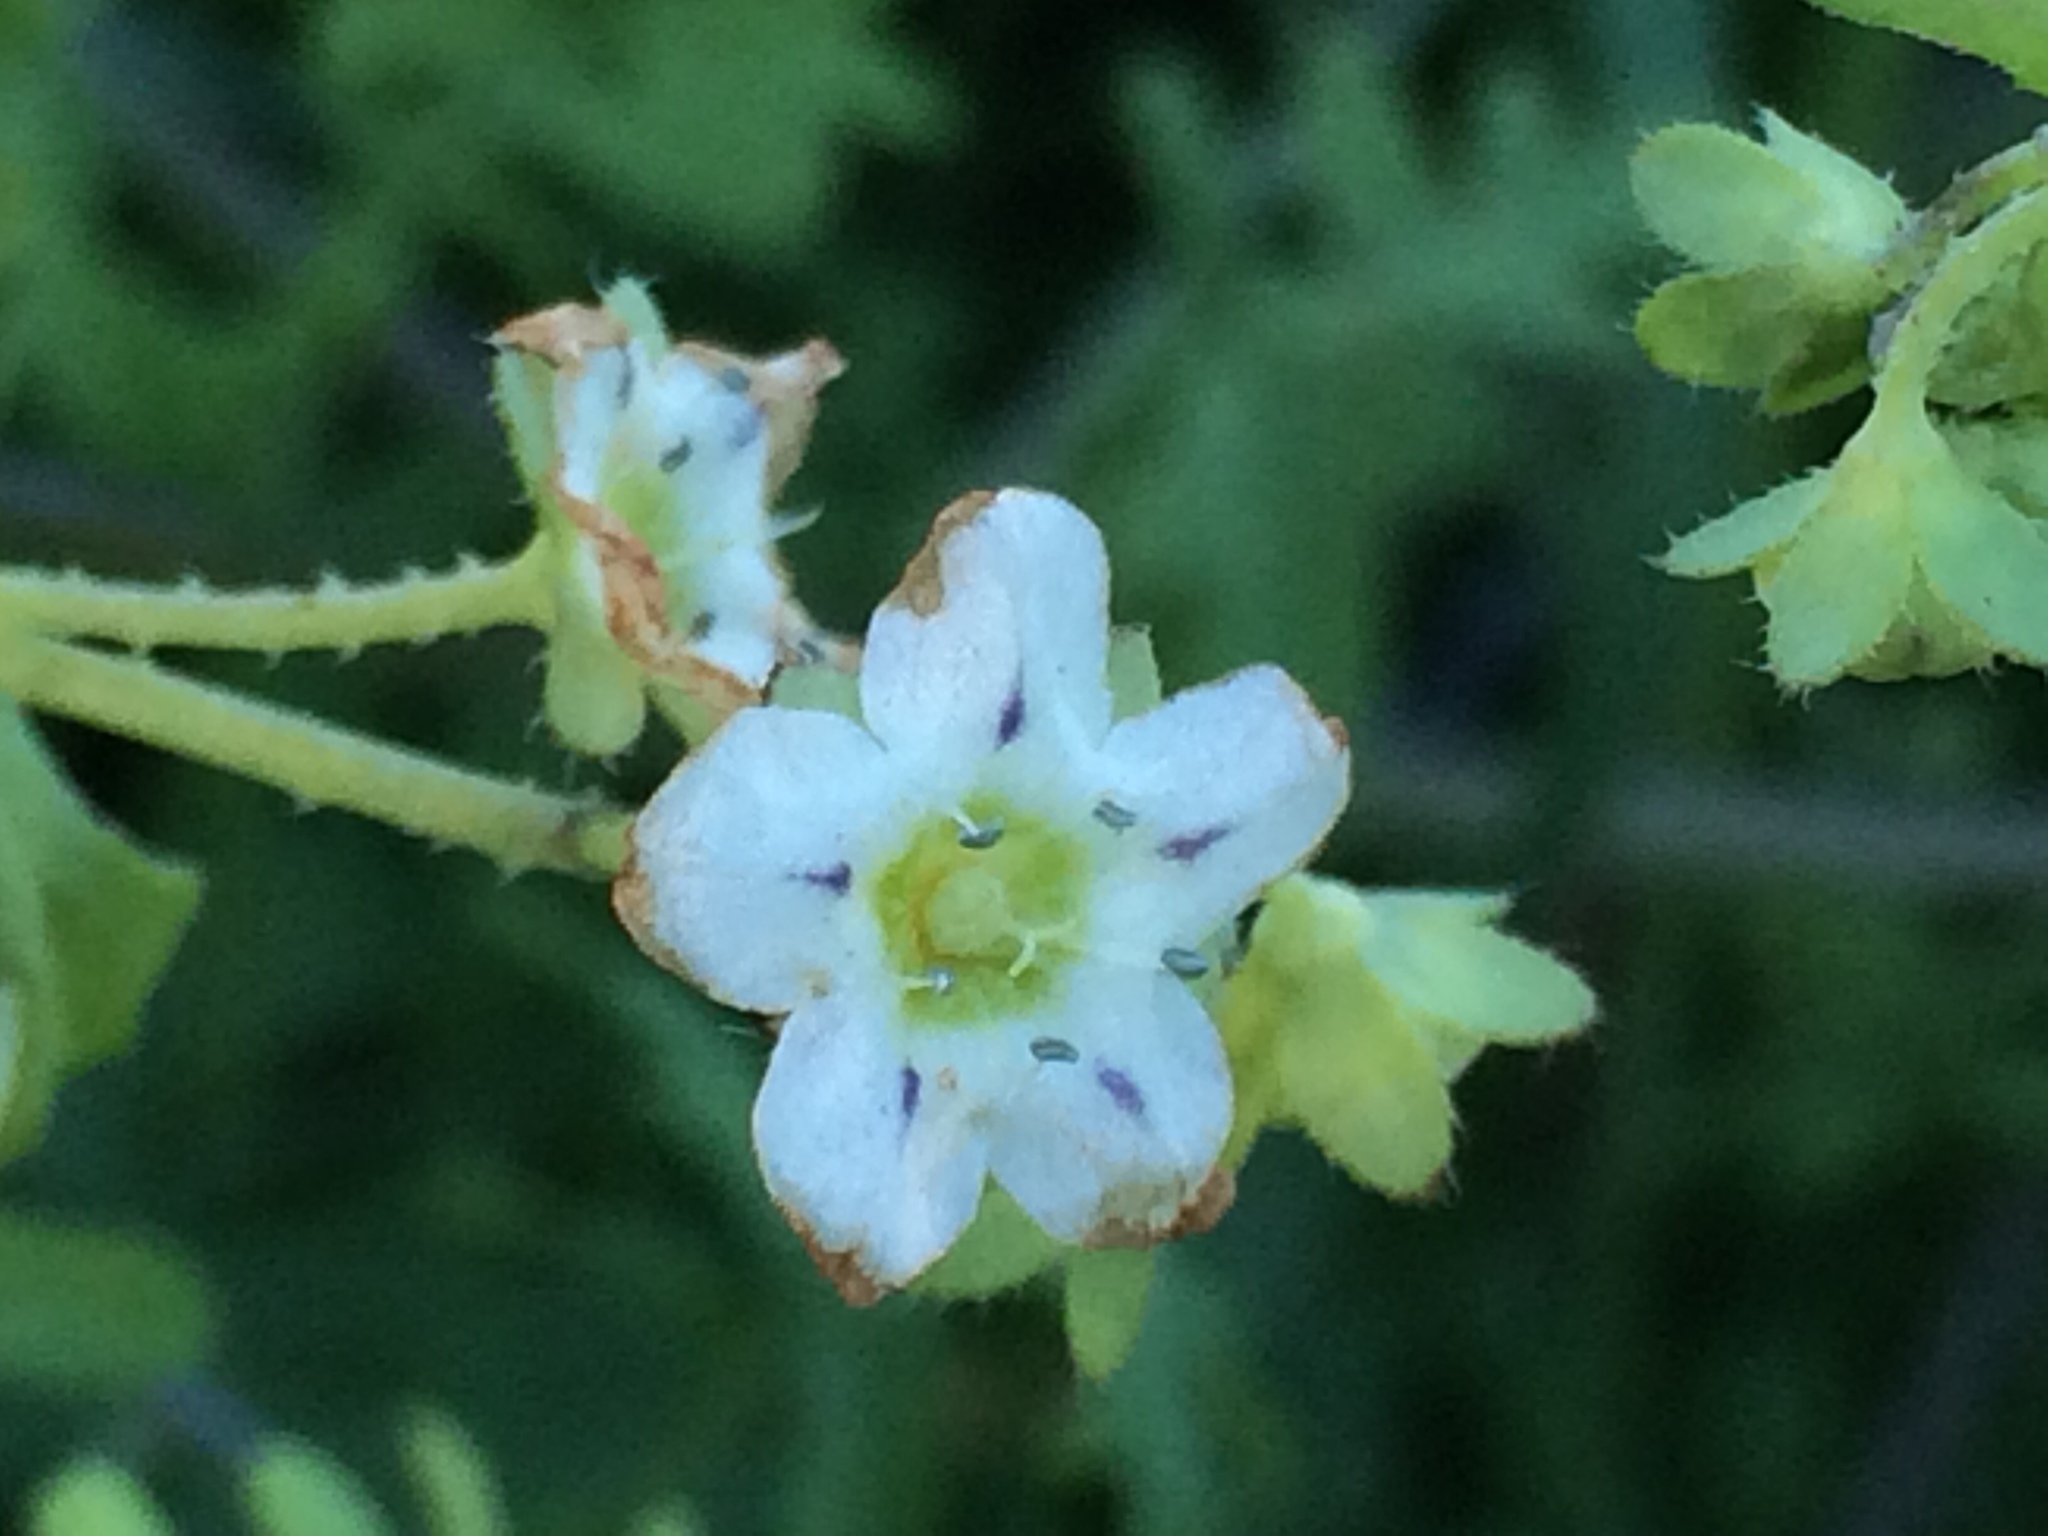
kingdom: Plantae
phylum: Tracheophyta
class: Magnoliopsida
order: Boraginales
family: Hydrophyllaceae
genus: Pholistoma
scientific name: Pholistoma membranaceum
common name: White fiesta-flower
